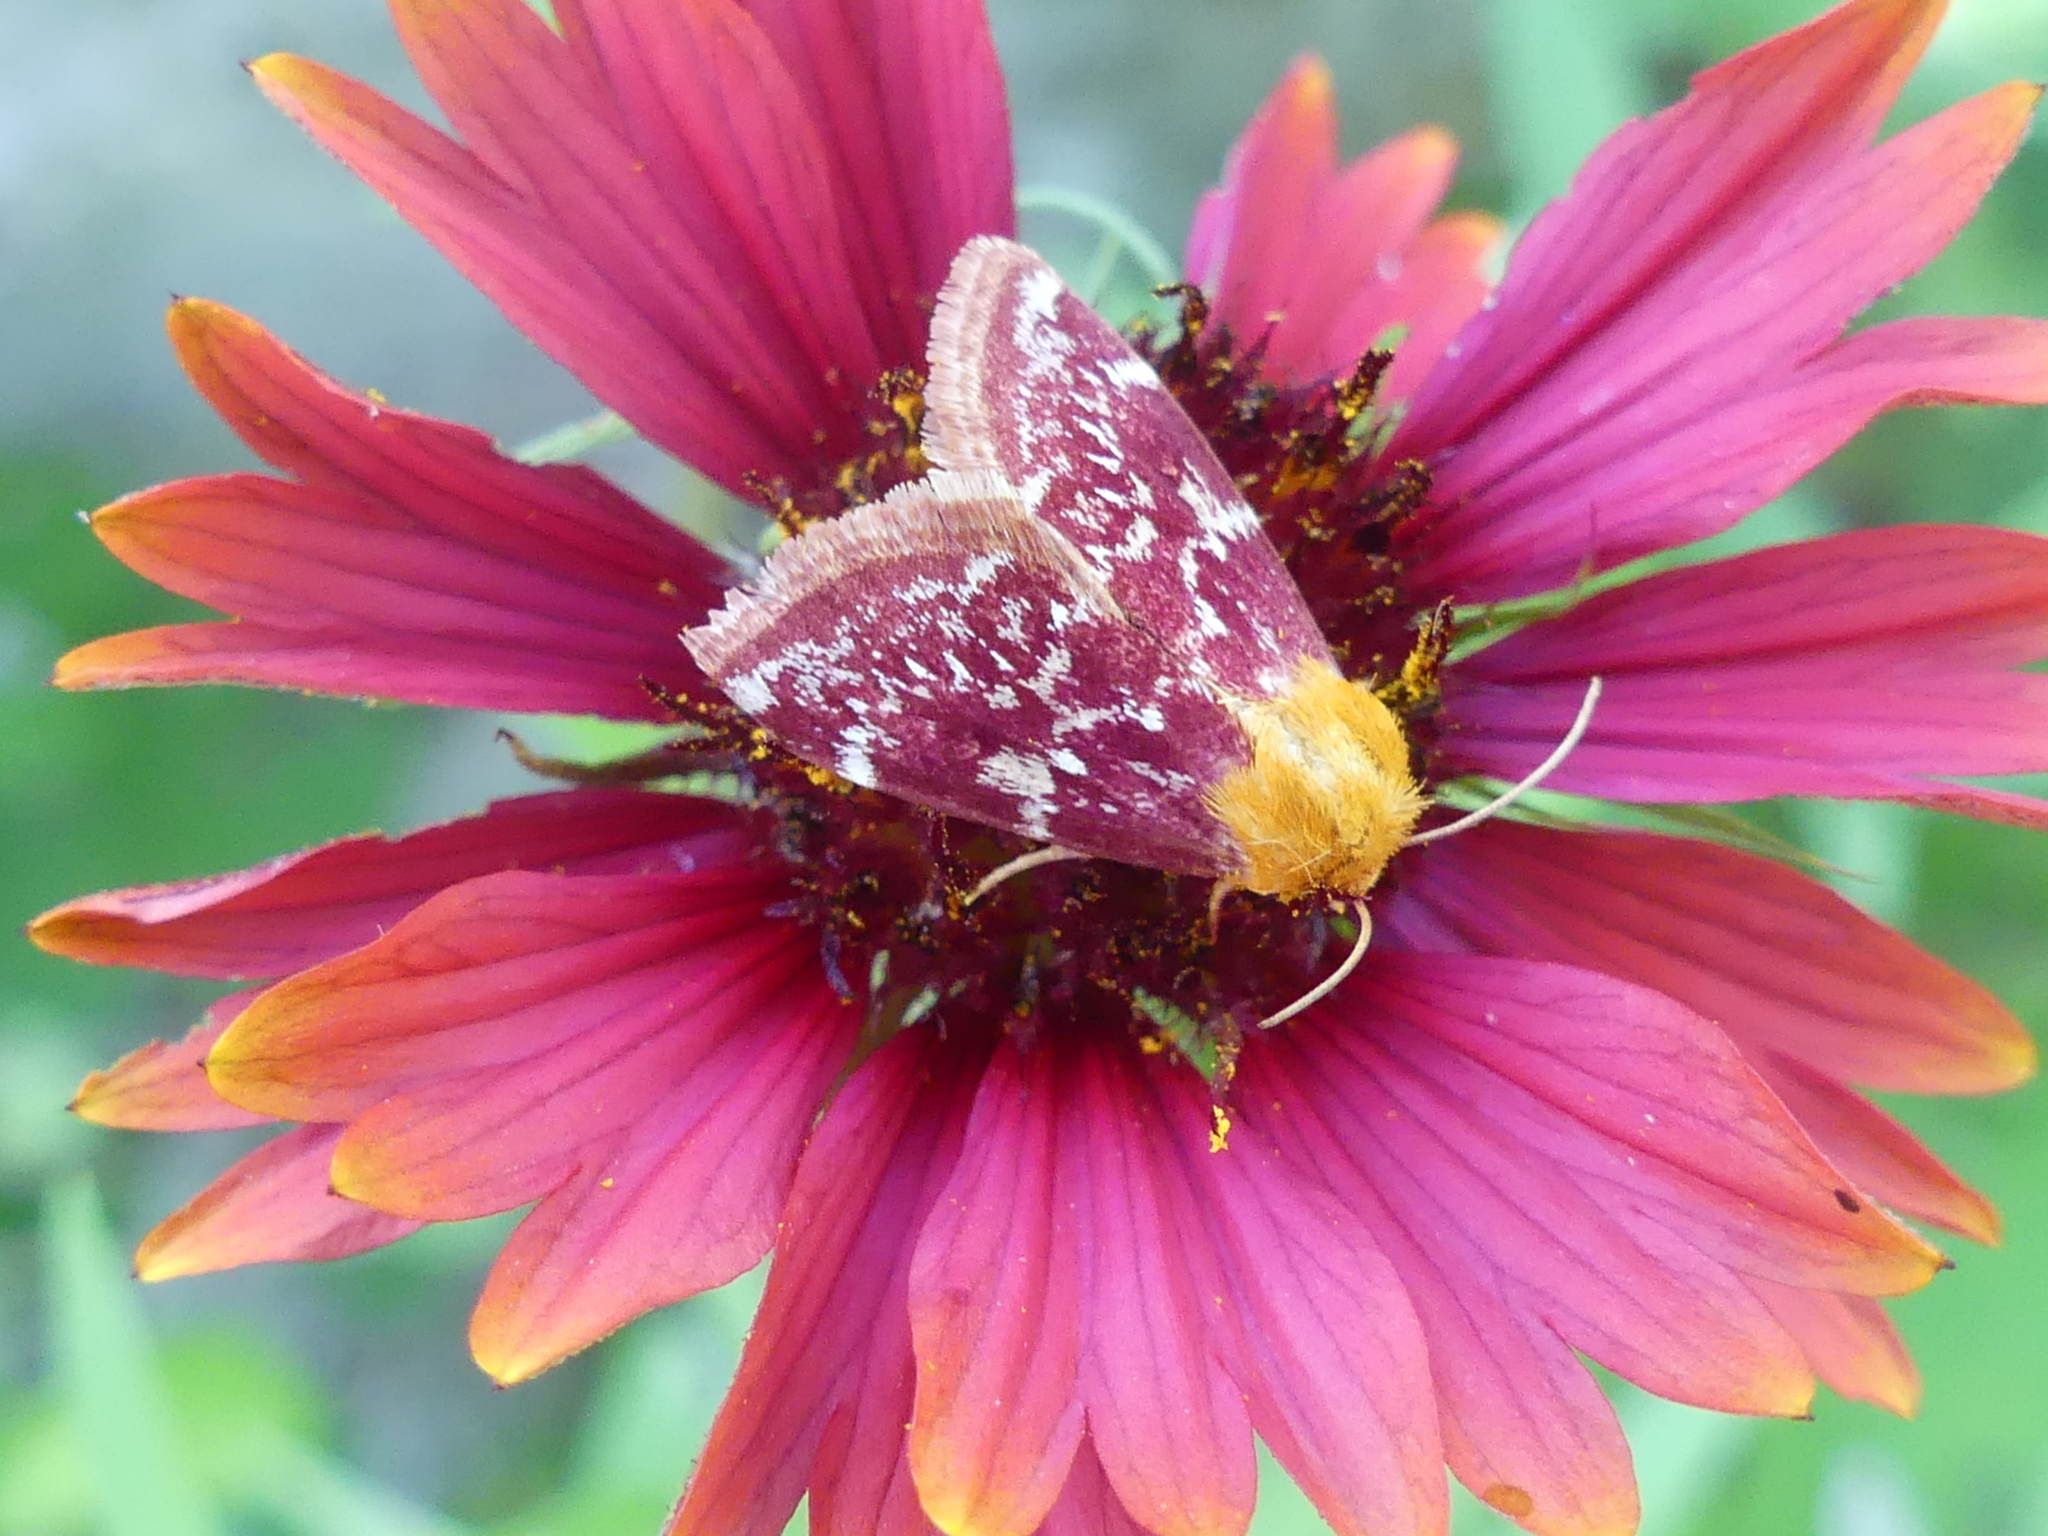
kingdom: Animalia
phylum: Arthropoda
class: Insecta
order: Lepidoptera
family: Noctuidae
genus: Schinia
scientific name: Schinia volupia
